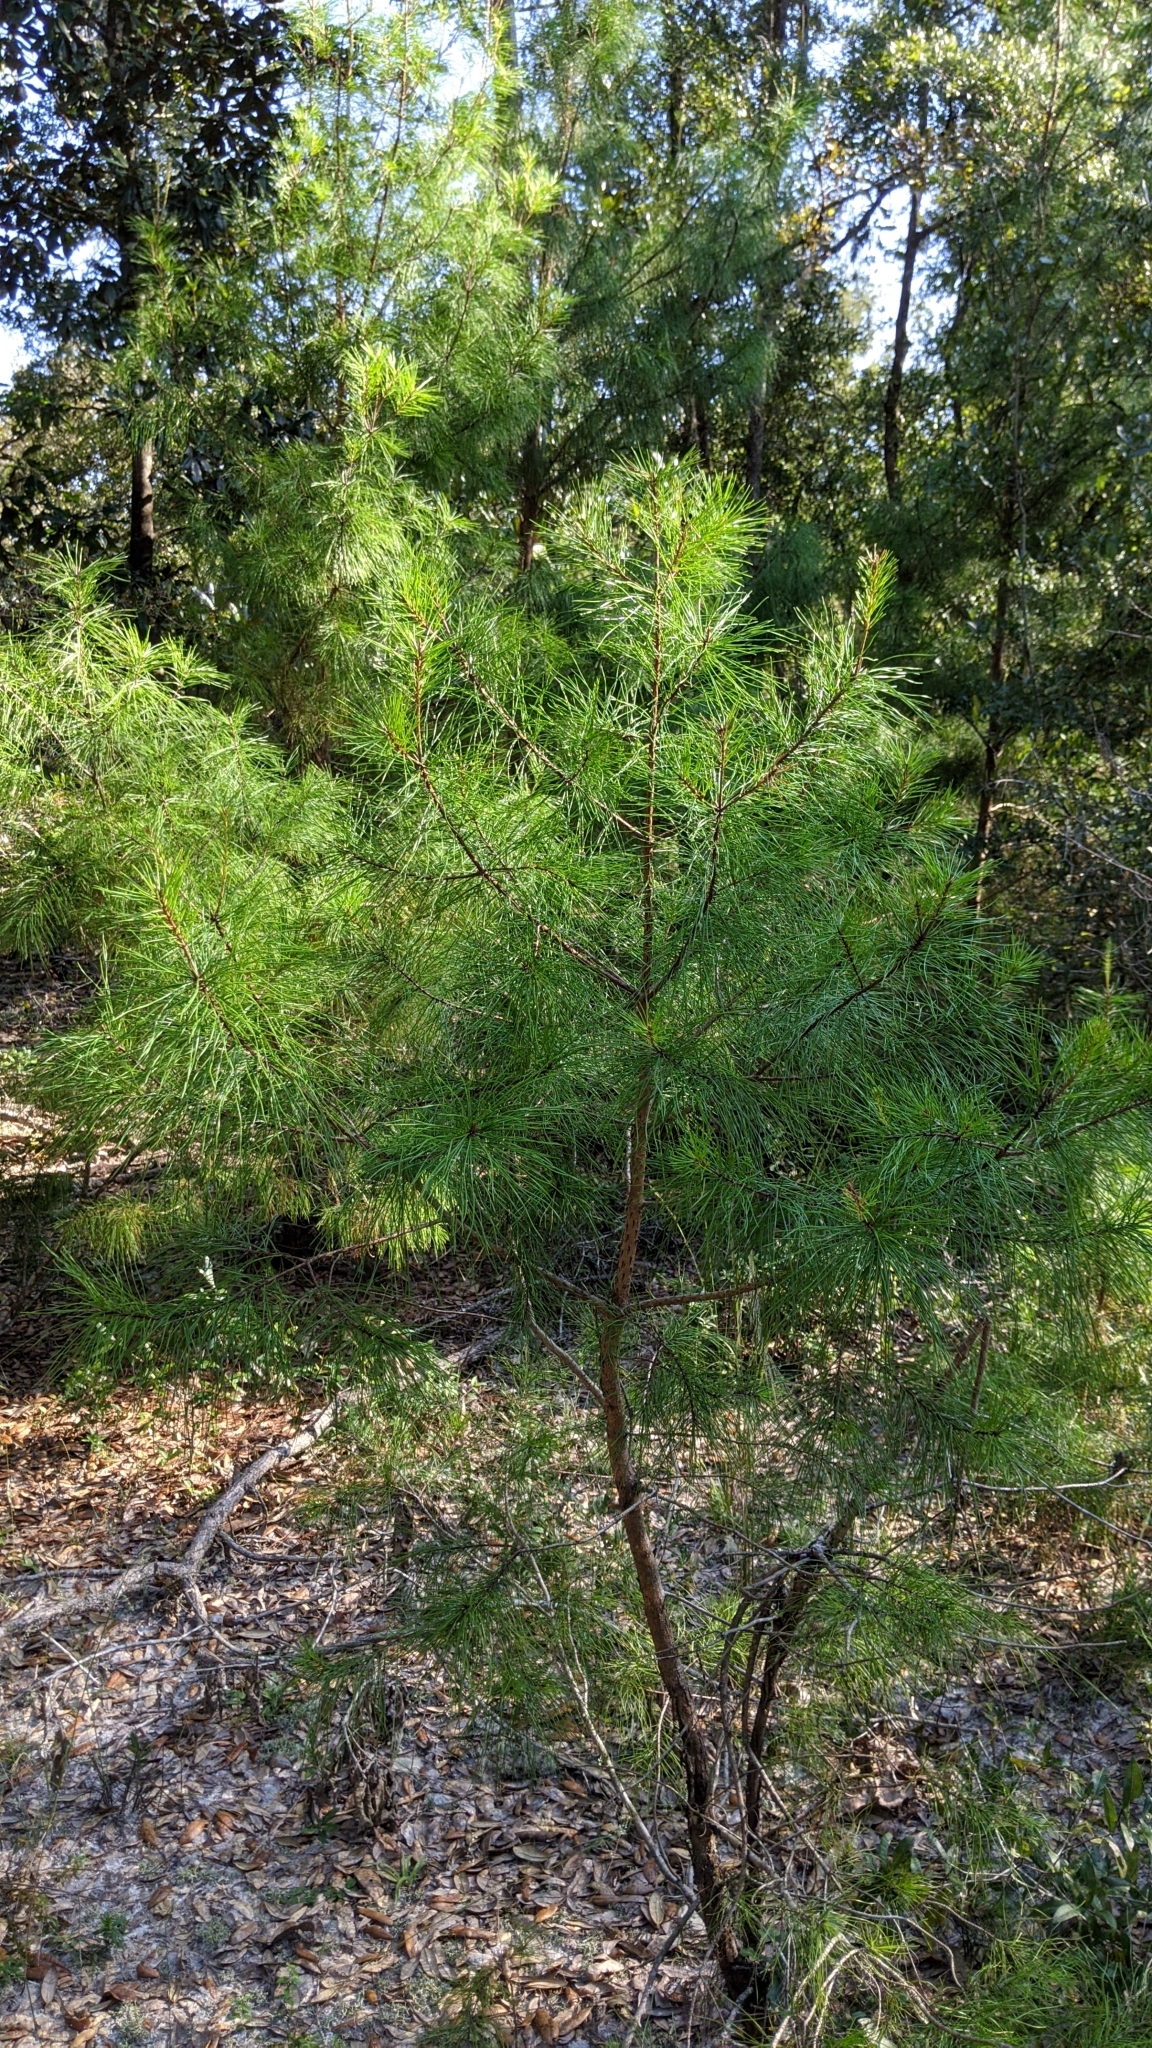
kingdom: Plantae
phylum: Tracheophyta
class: Pinopsida
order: Pinales
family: Pinaceae
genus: Pinus
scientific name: Pinus clausa
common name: Sand pine
